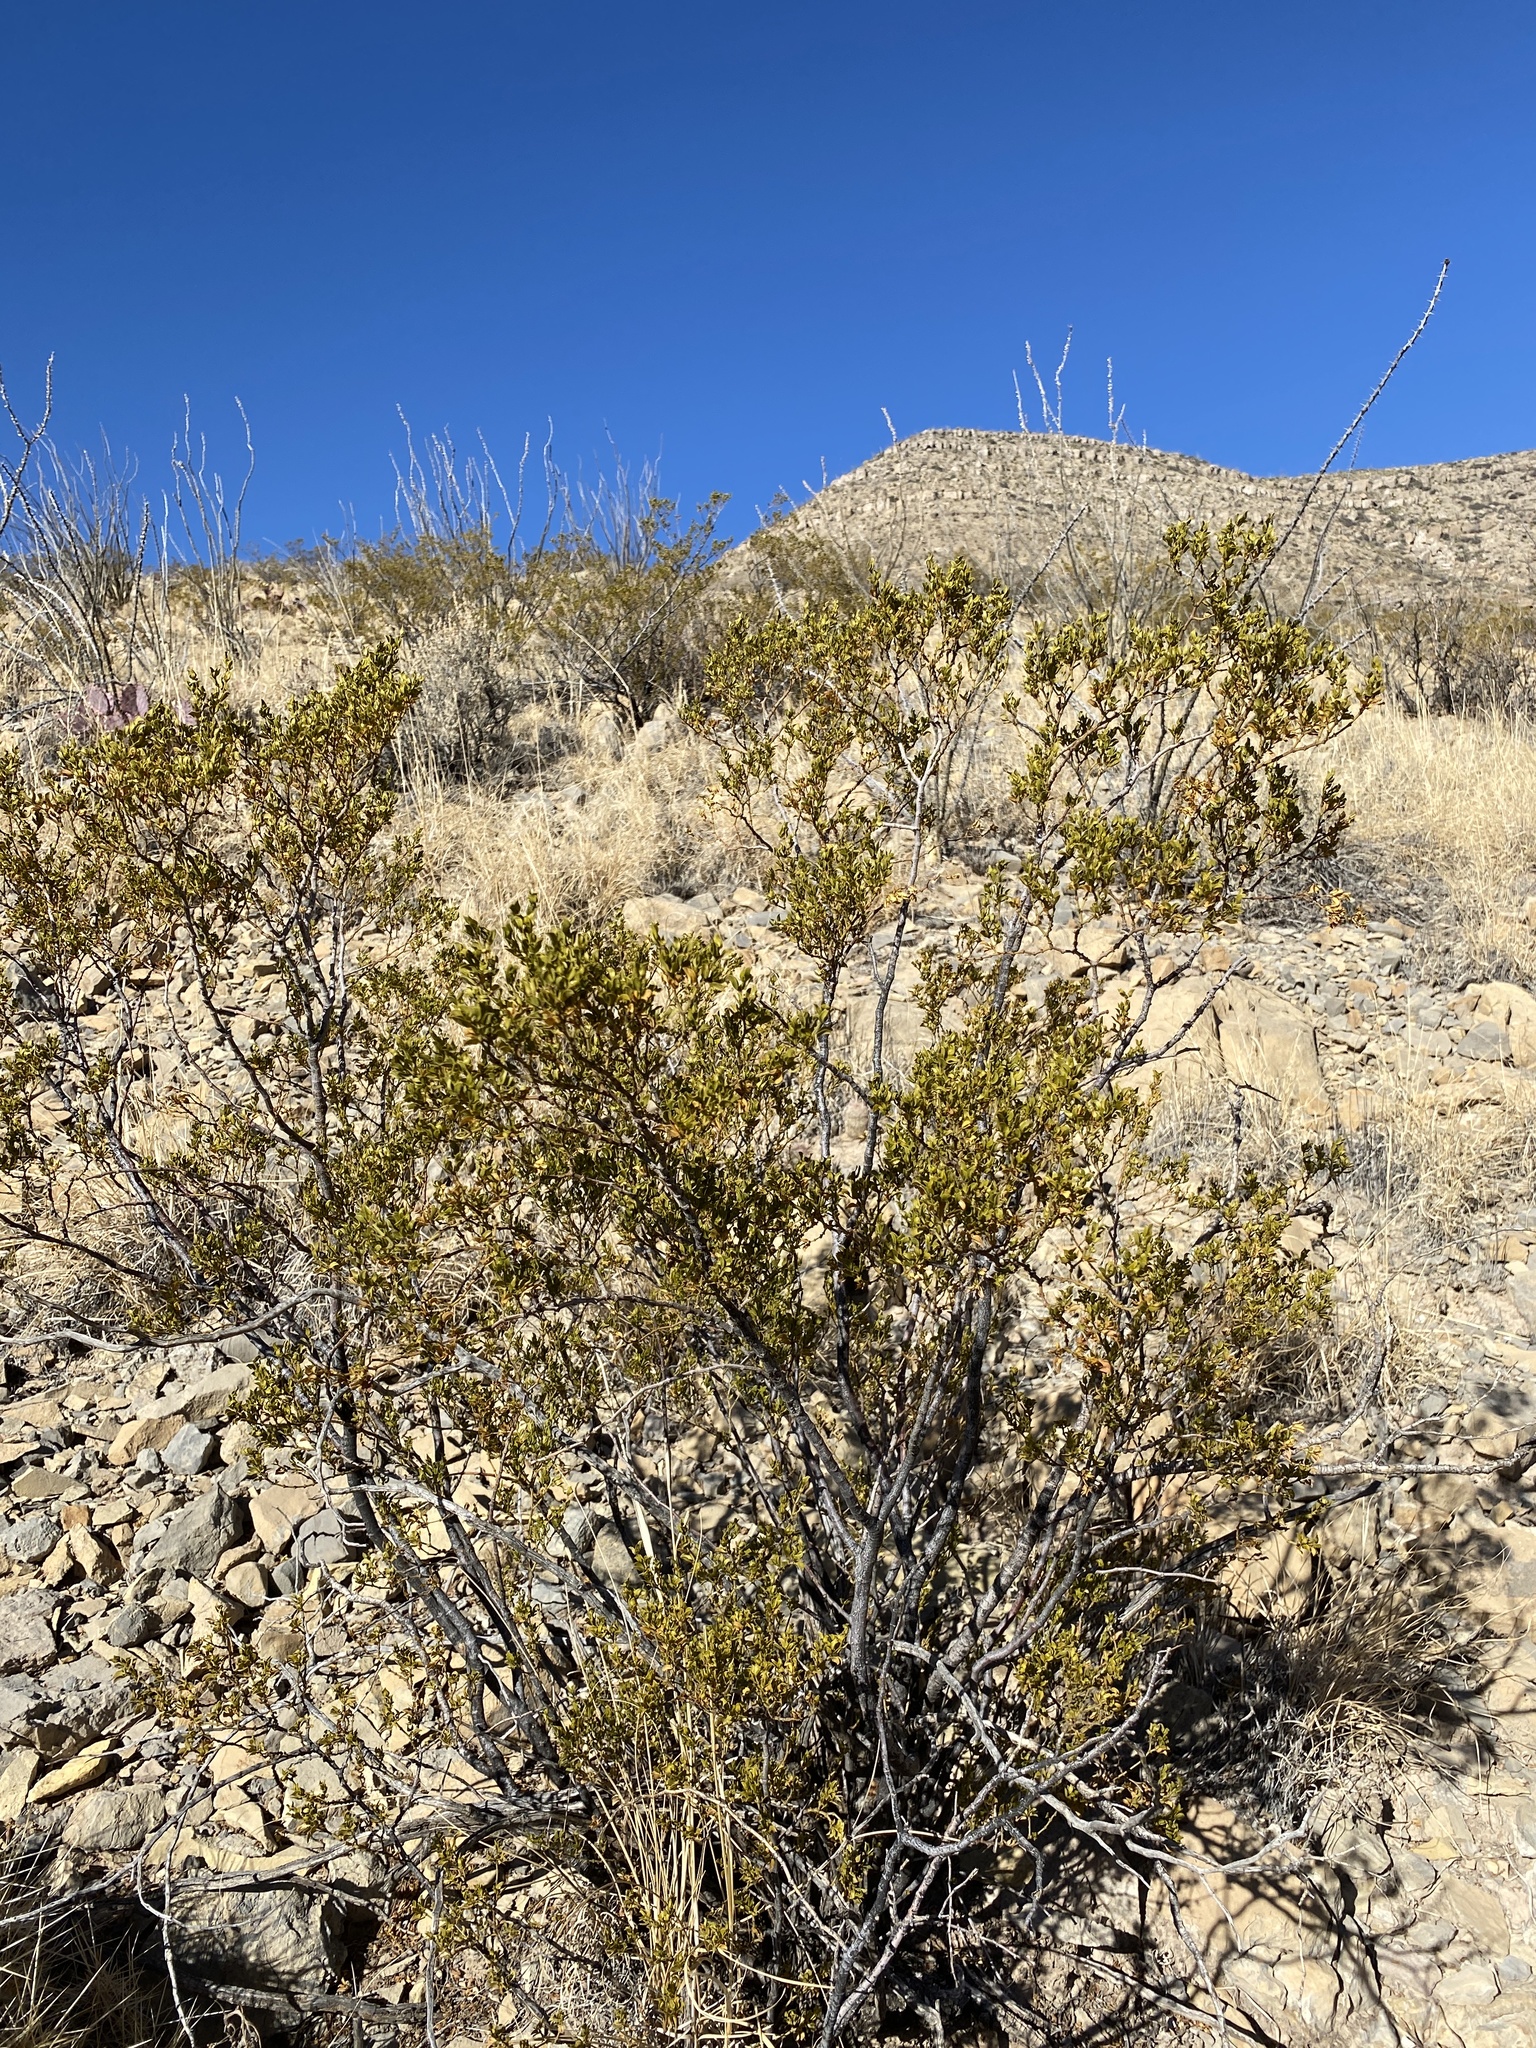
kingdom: Plantae
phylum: Tracheophyta
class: Magnoliopsida
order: Zygophyllales
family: Zygophyllaceae
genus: Larrea
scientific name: Larrea tridentata
